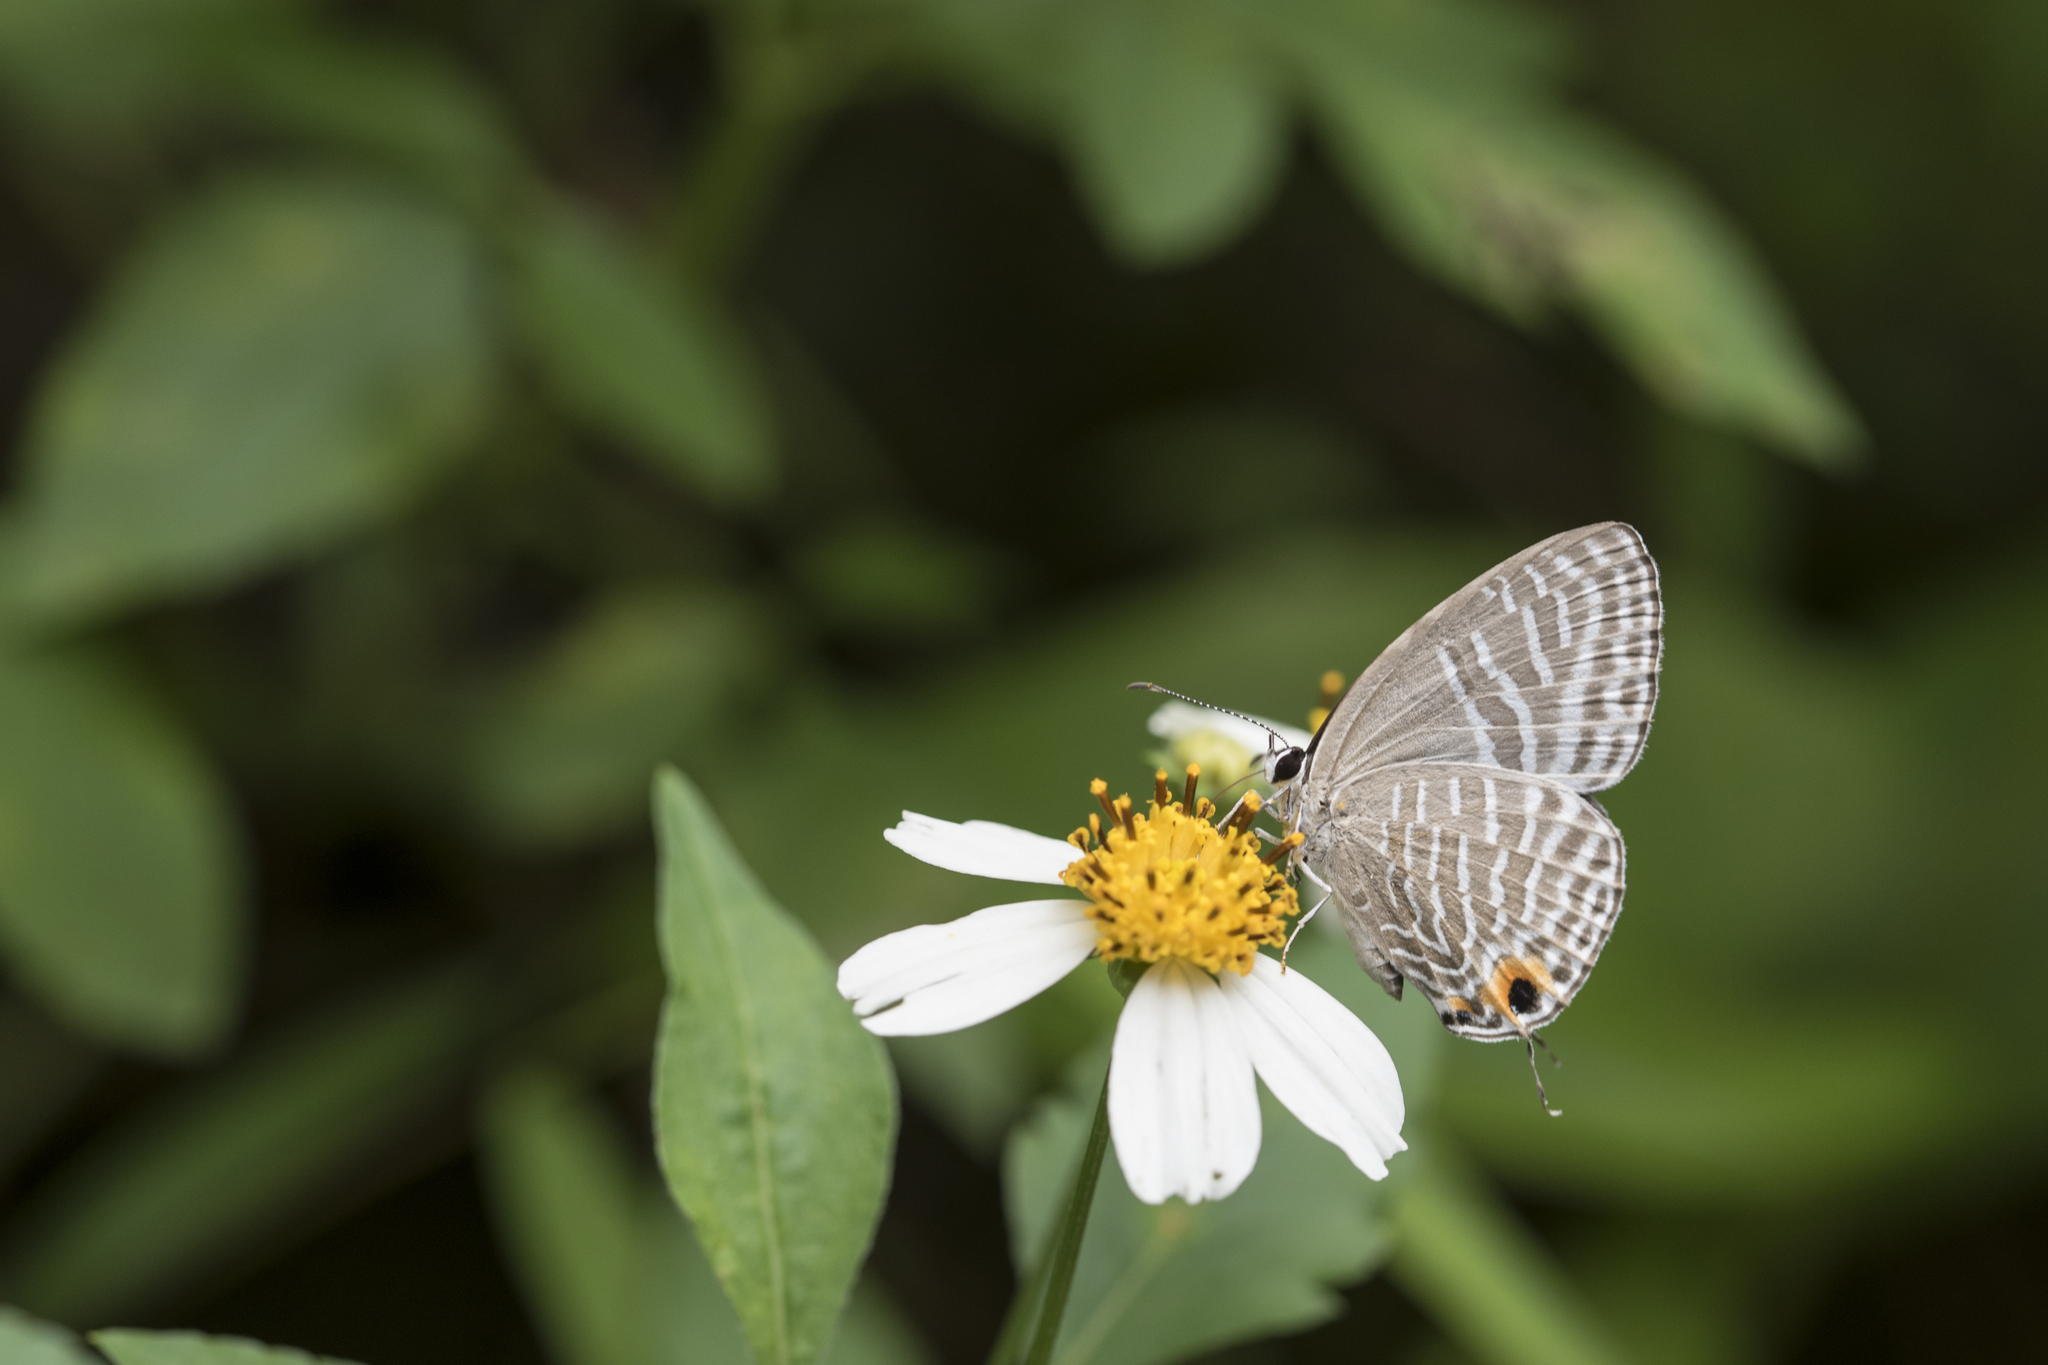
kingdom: Animalia
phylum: Arthropoda
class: Insecta
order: Lepidoptera
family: Lycaenidae
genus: Jamides
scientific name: Jamides alecto
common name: Metallic cerulean
